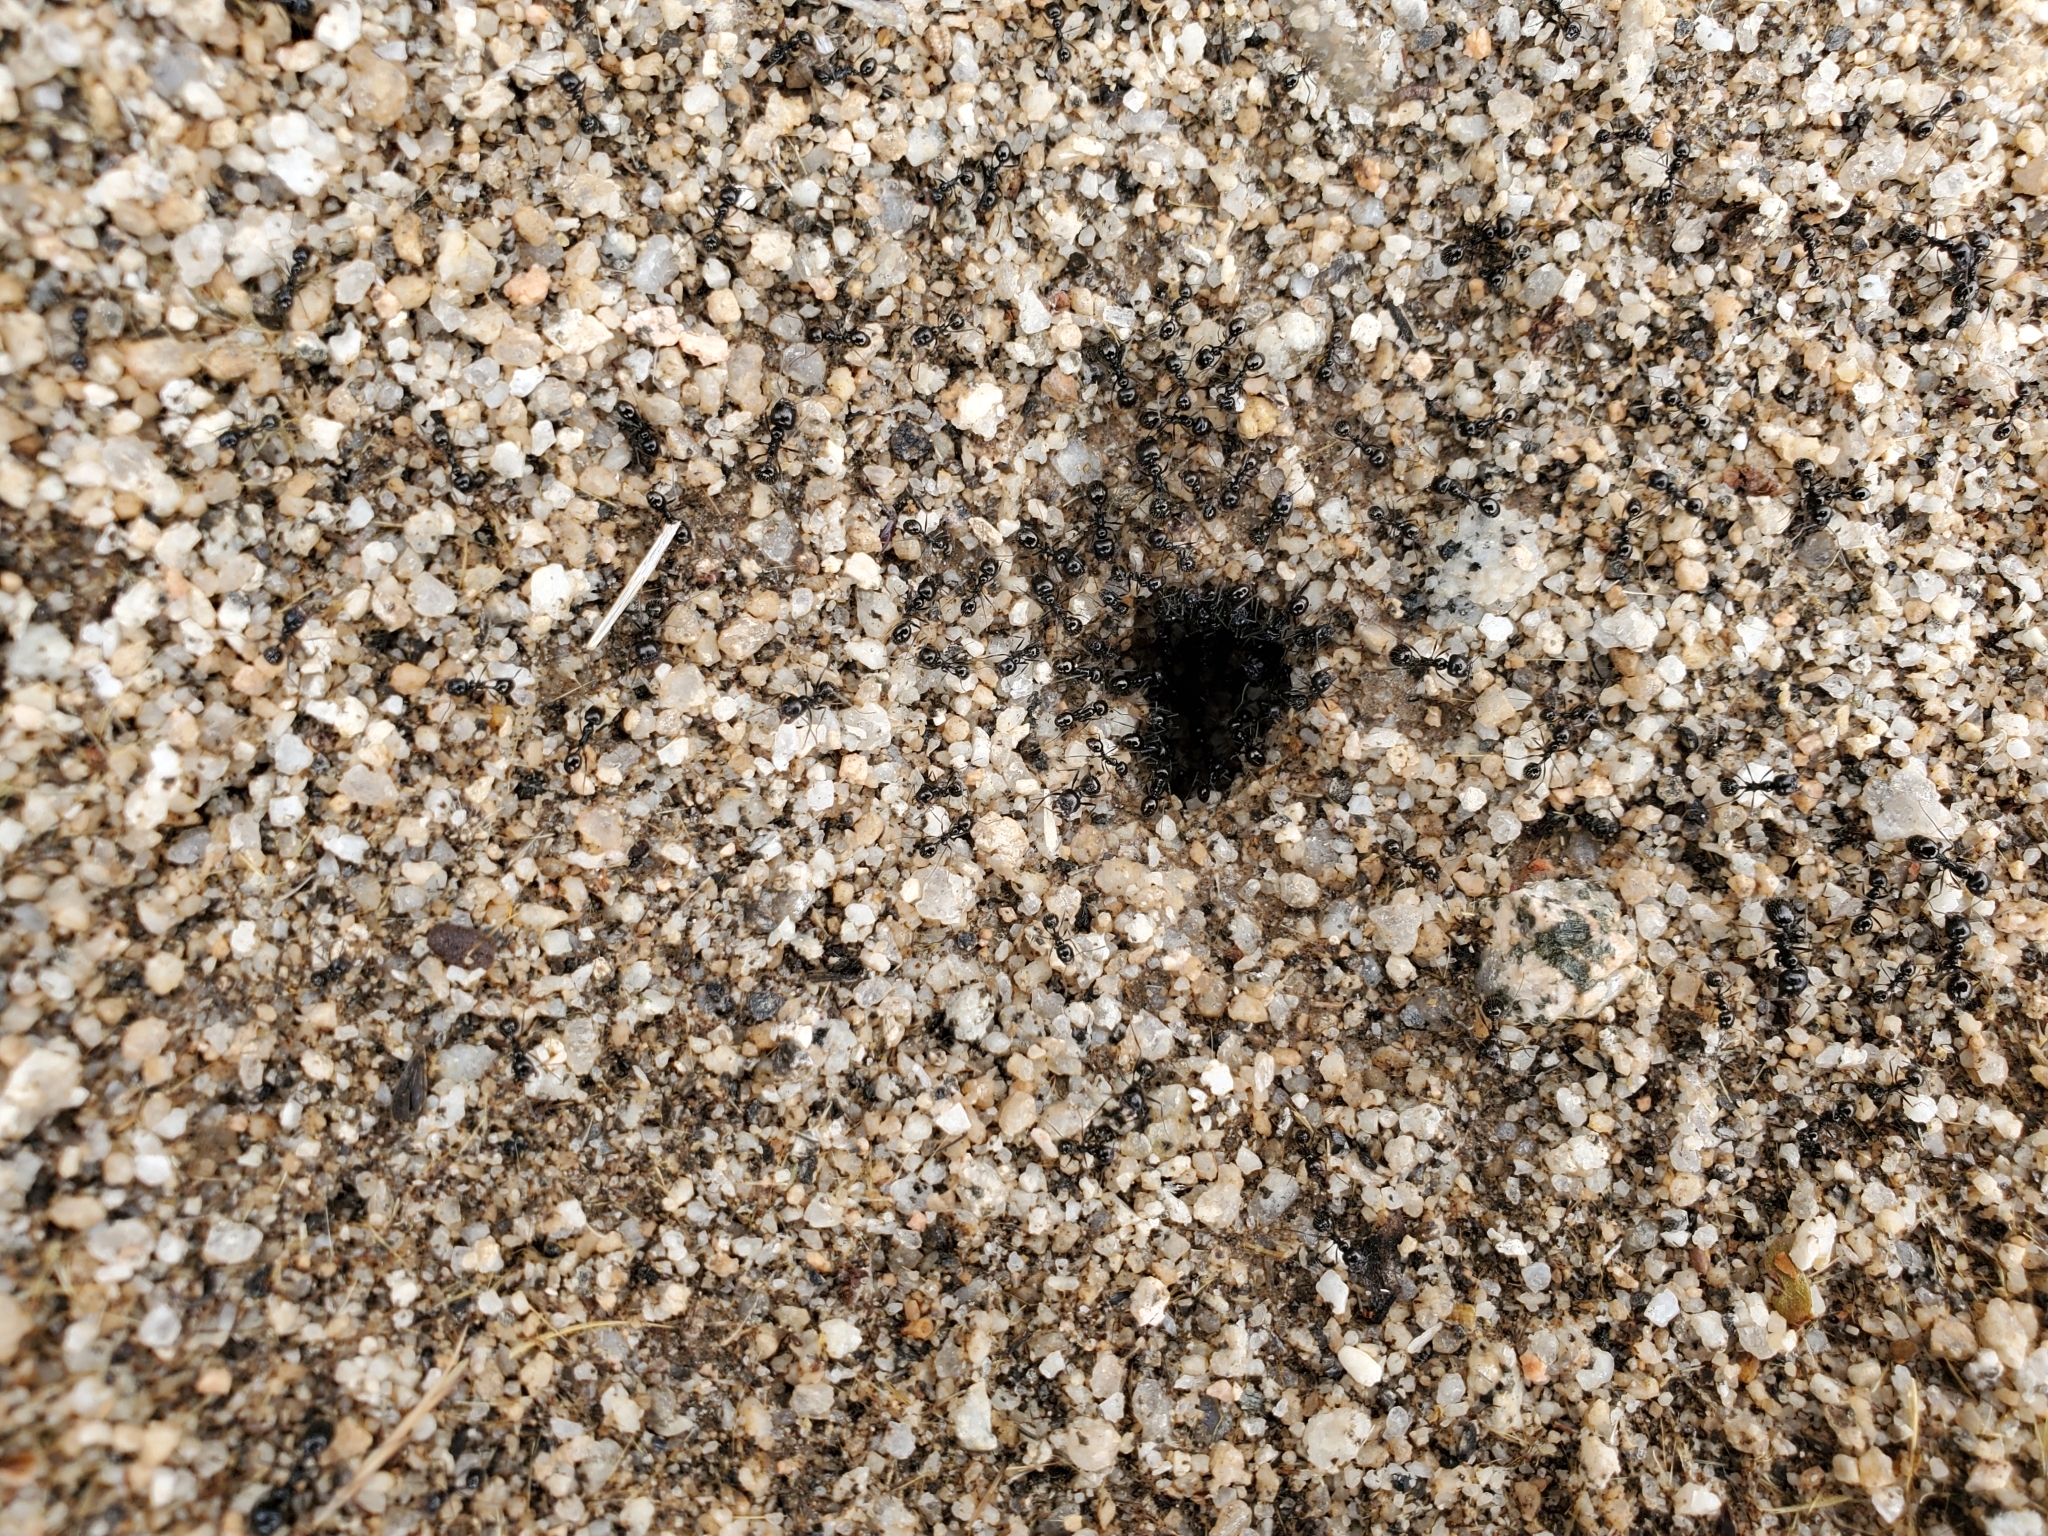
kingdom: Animalia
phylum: Arthropoda
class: Insecta
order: Hymenoptera
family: Formicidae
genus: Messor
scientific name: Messor pergandei
